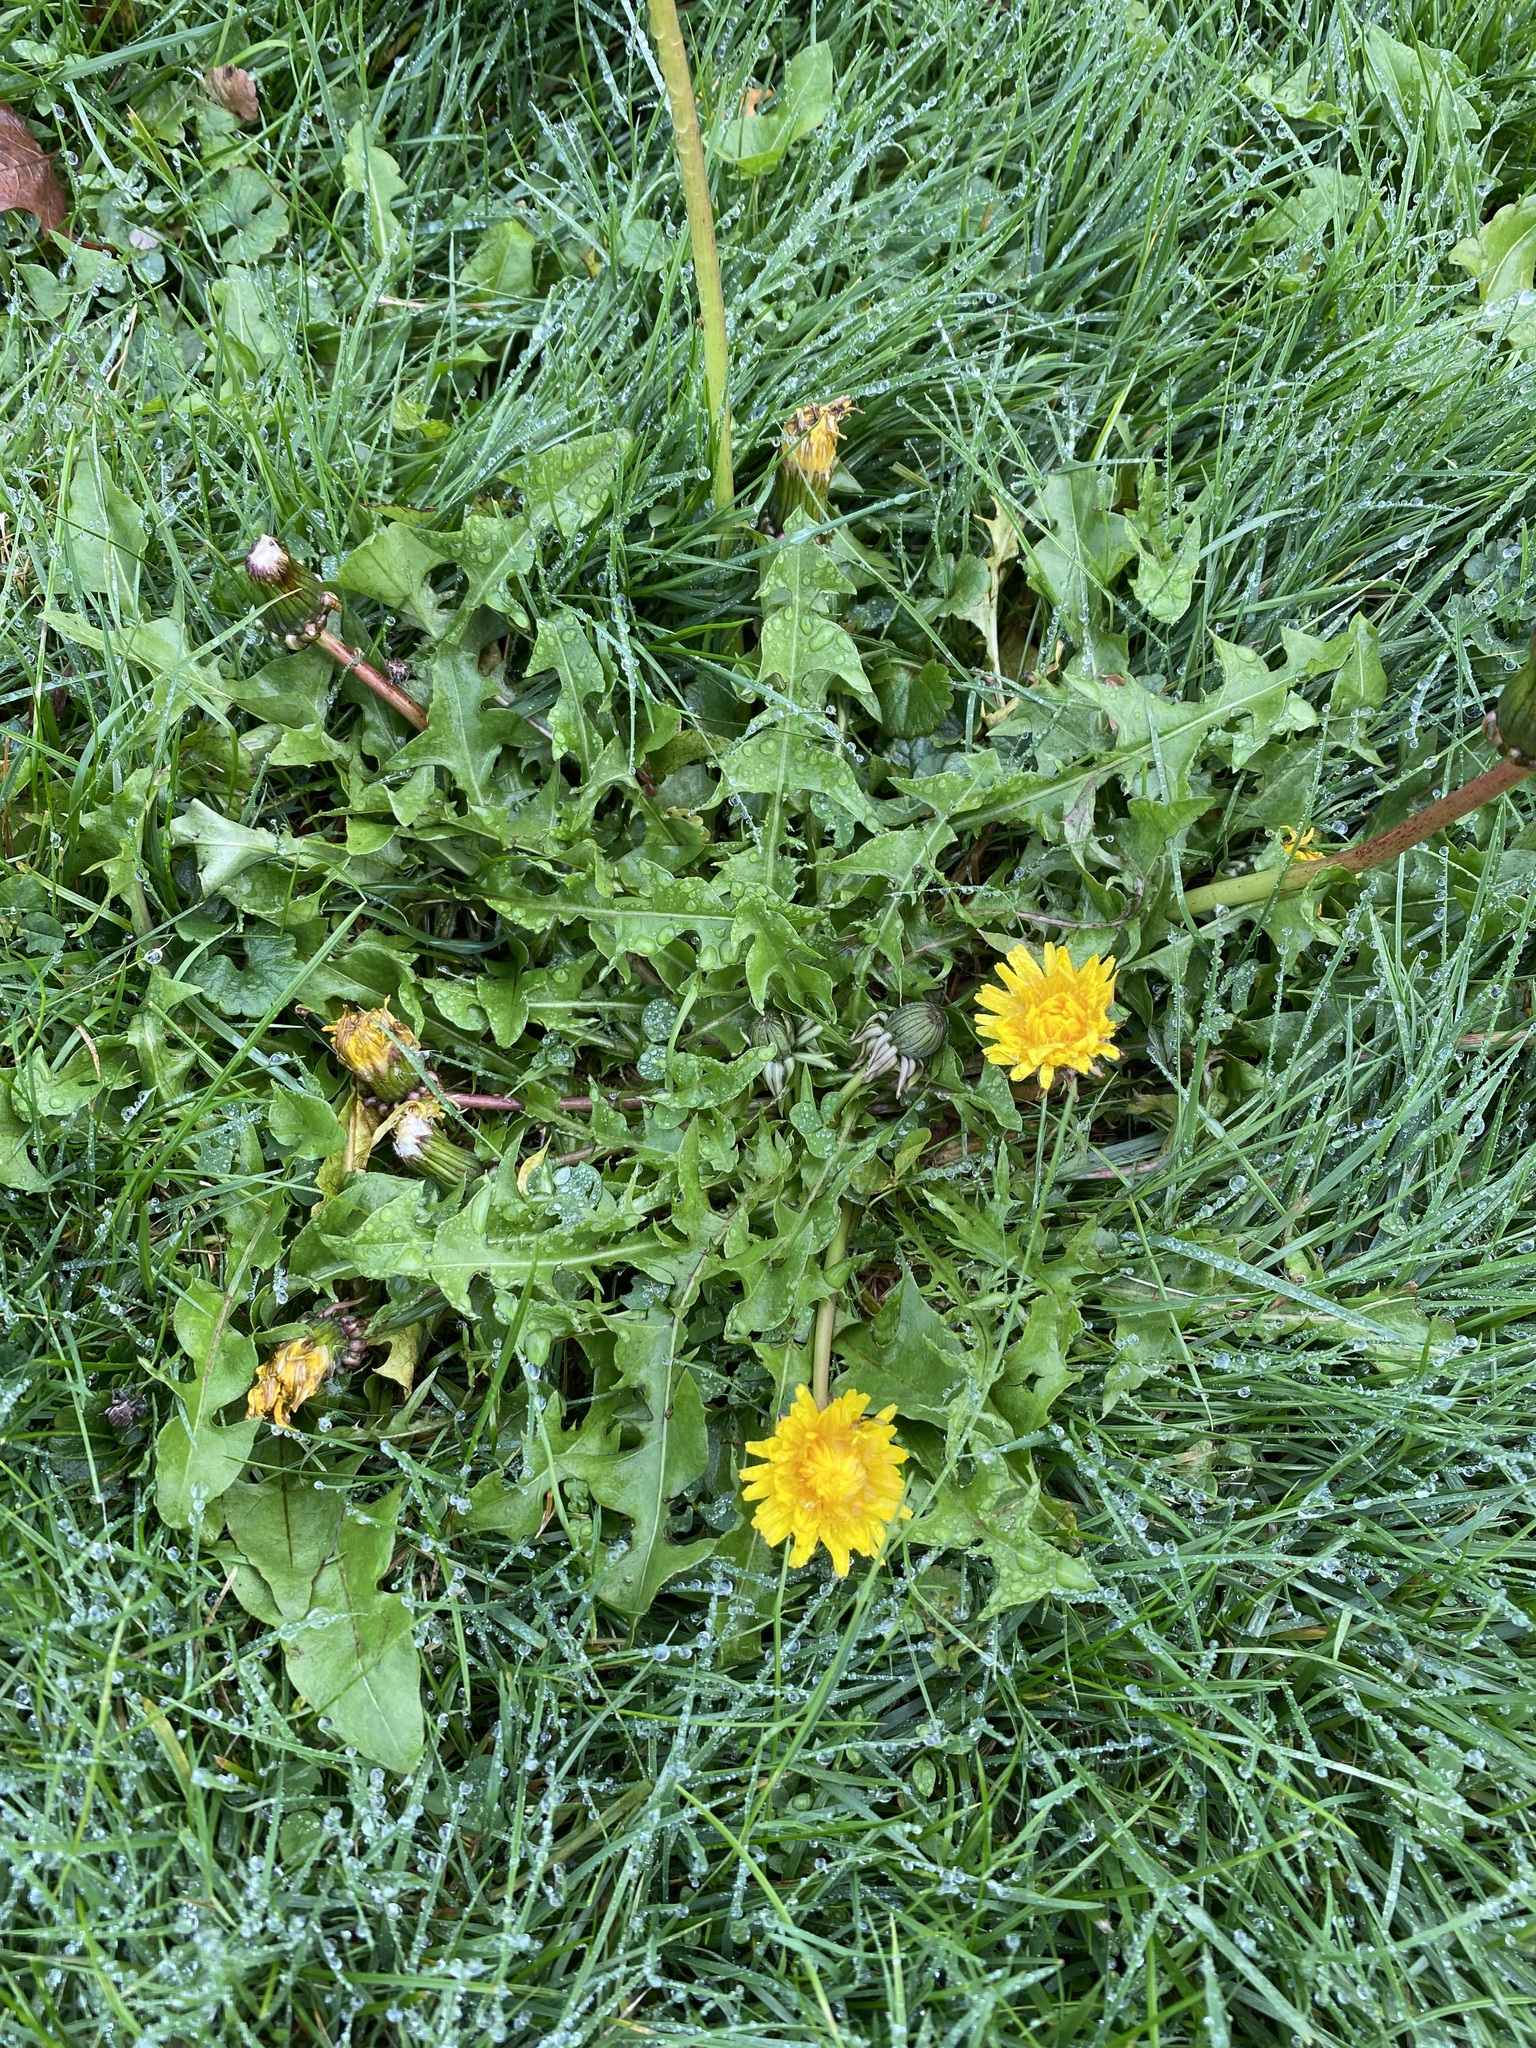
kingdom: Plantae
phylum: Tracheophyta
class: Magnoliopsida
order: Asterales
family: Asteraceae
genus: Taraxacum
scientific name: Taraxacum officinale
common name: Common dandelion
